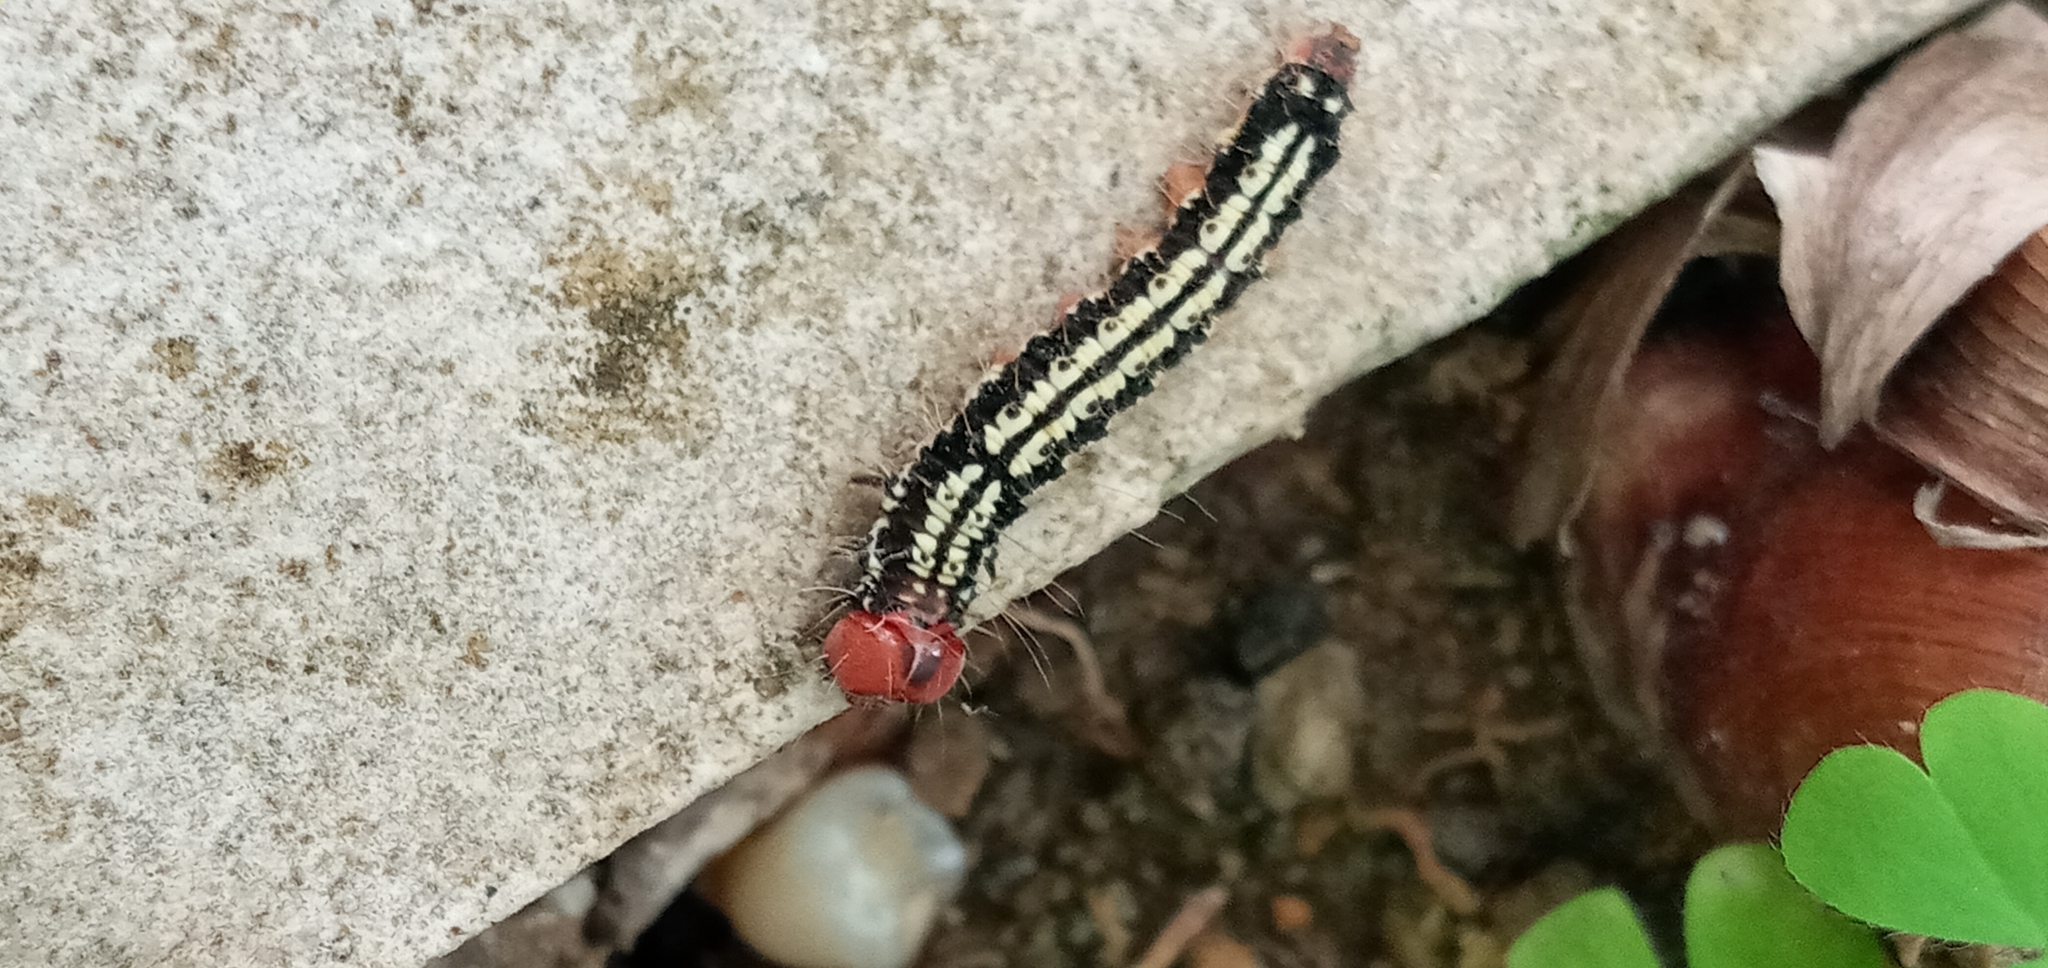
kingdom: Animalia
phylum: Arthropoda
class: Insecta
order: Lepidoptera
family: Erebidae
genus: Asota
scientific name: Asota caricae
